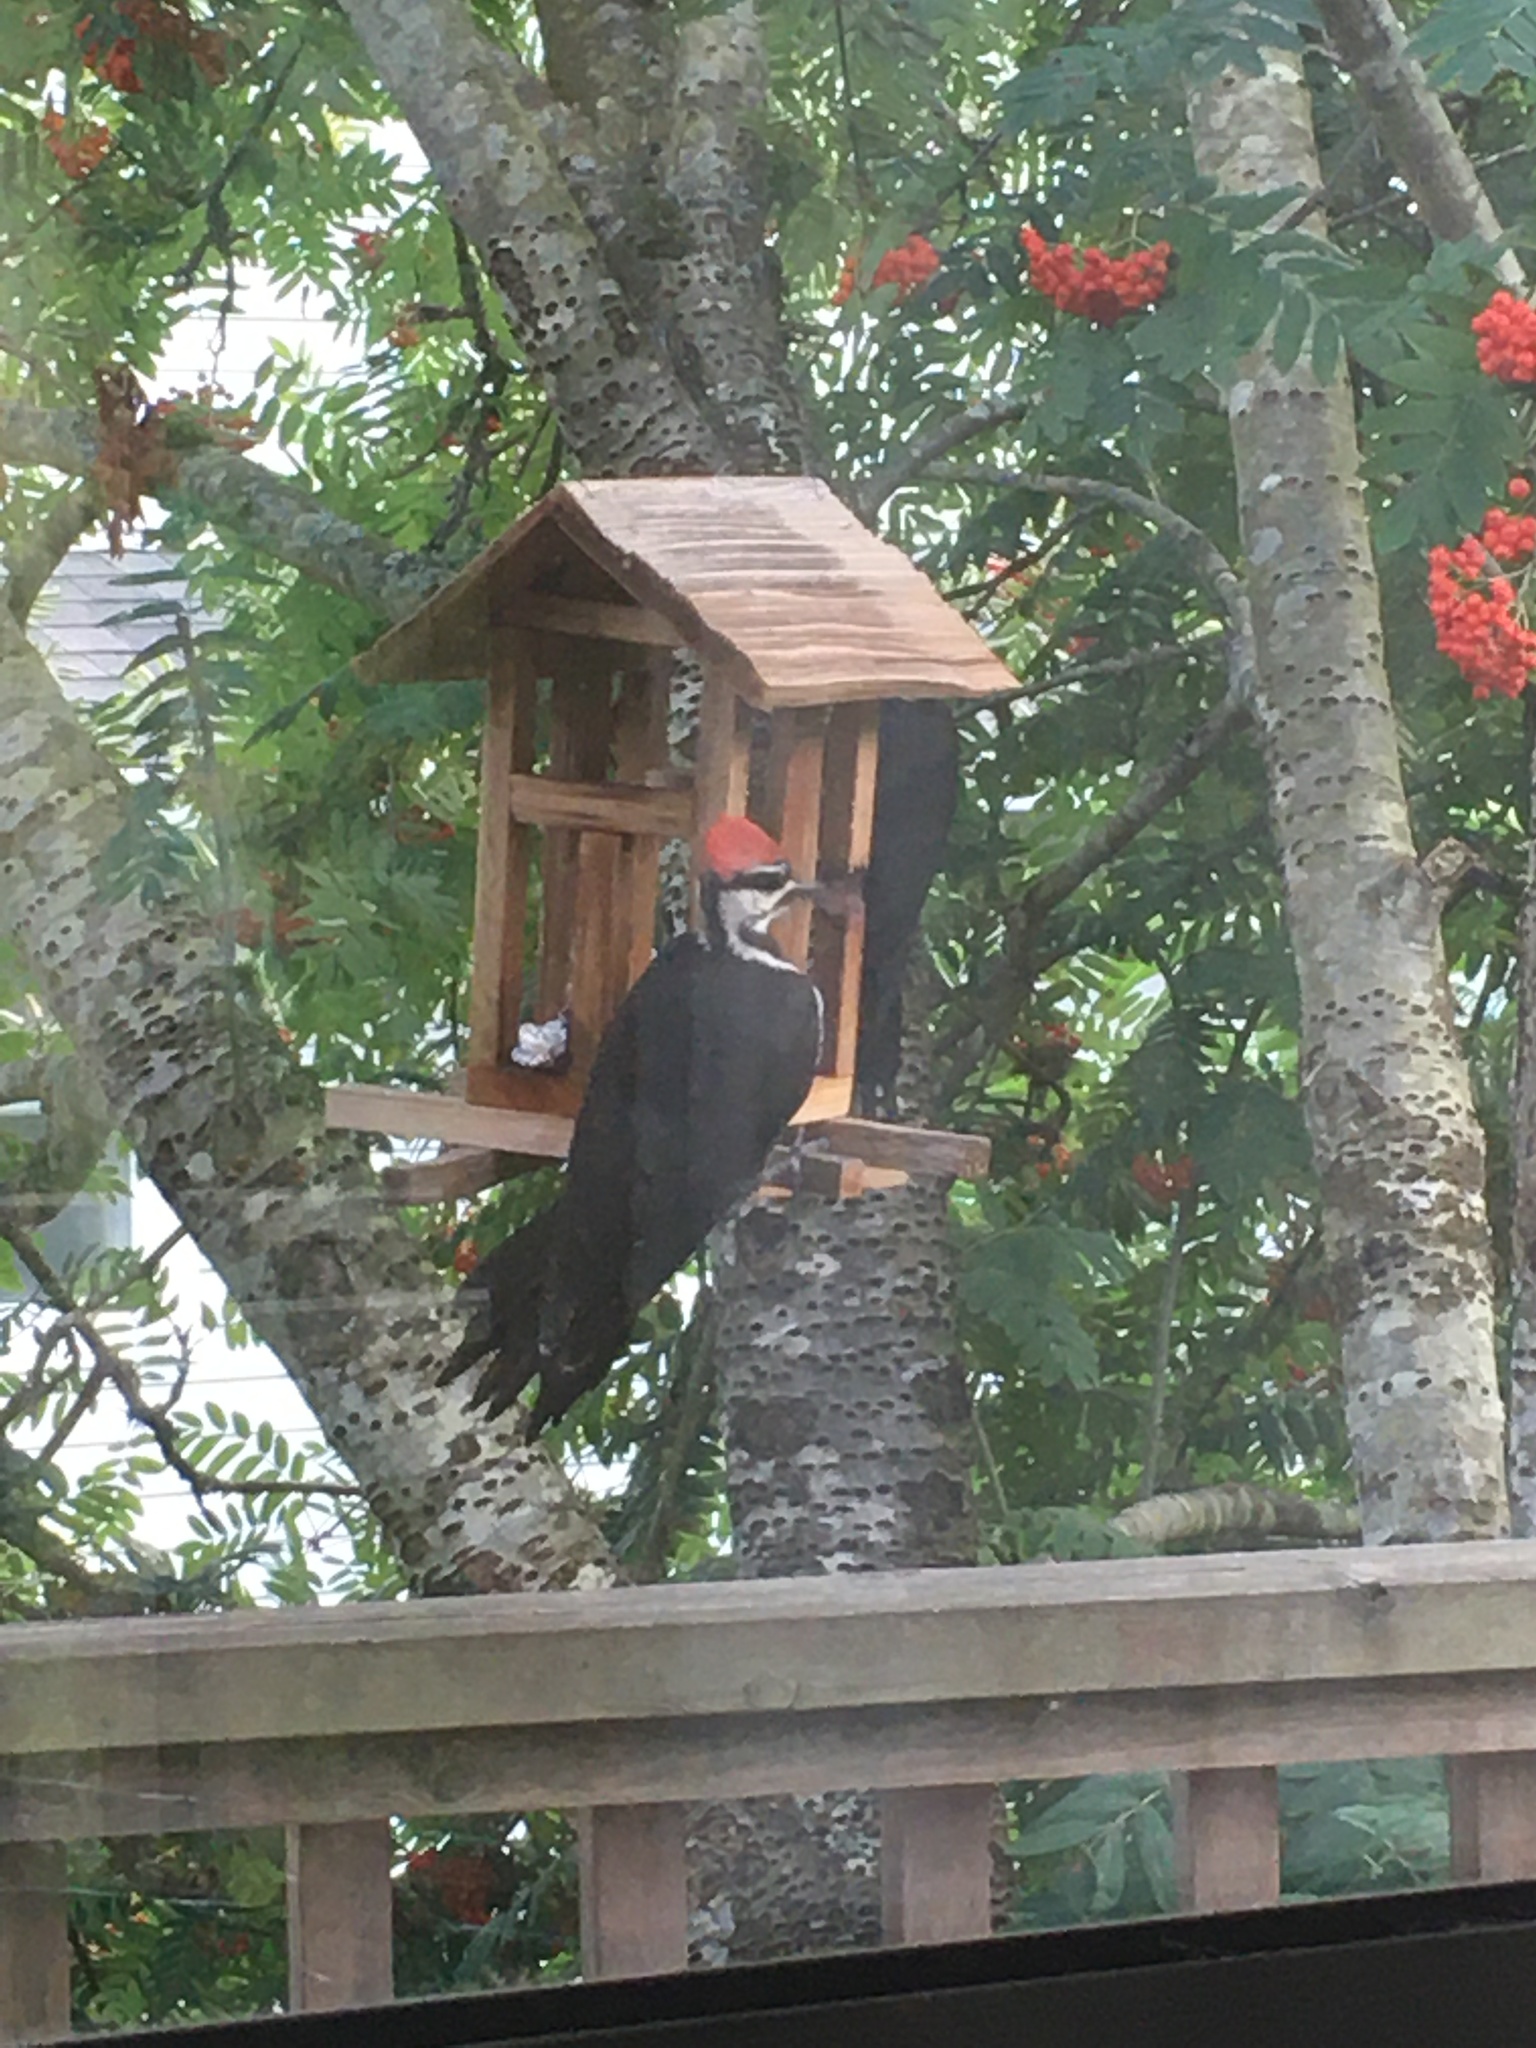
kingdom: Animalia
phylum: Chordata
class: Aves
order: Piciformes
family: Picidae
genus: Dryocopus
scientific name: Dryocopus pileatus
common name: Pileated woodpecker
